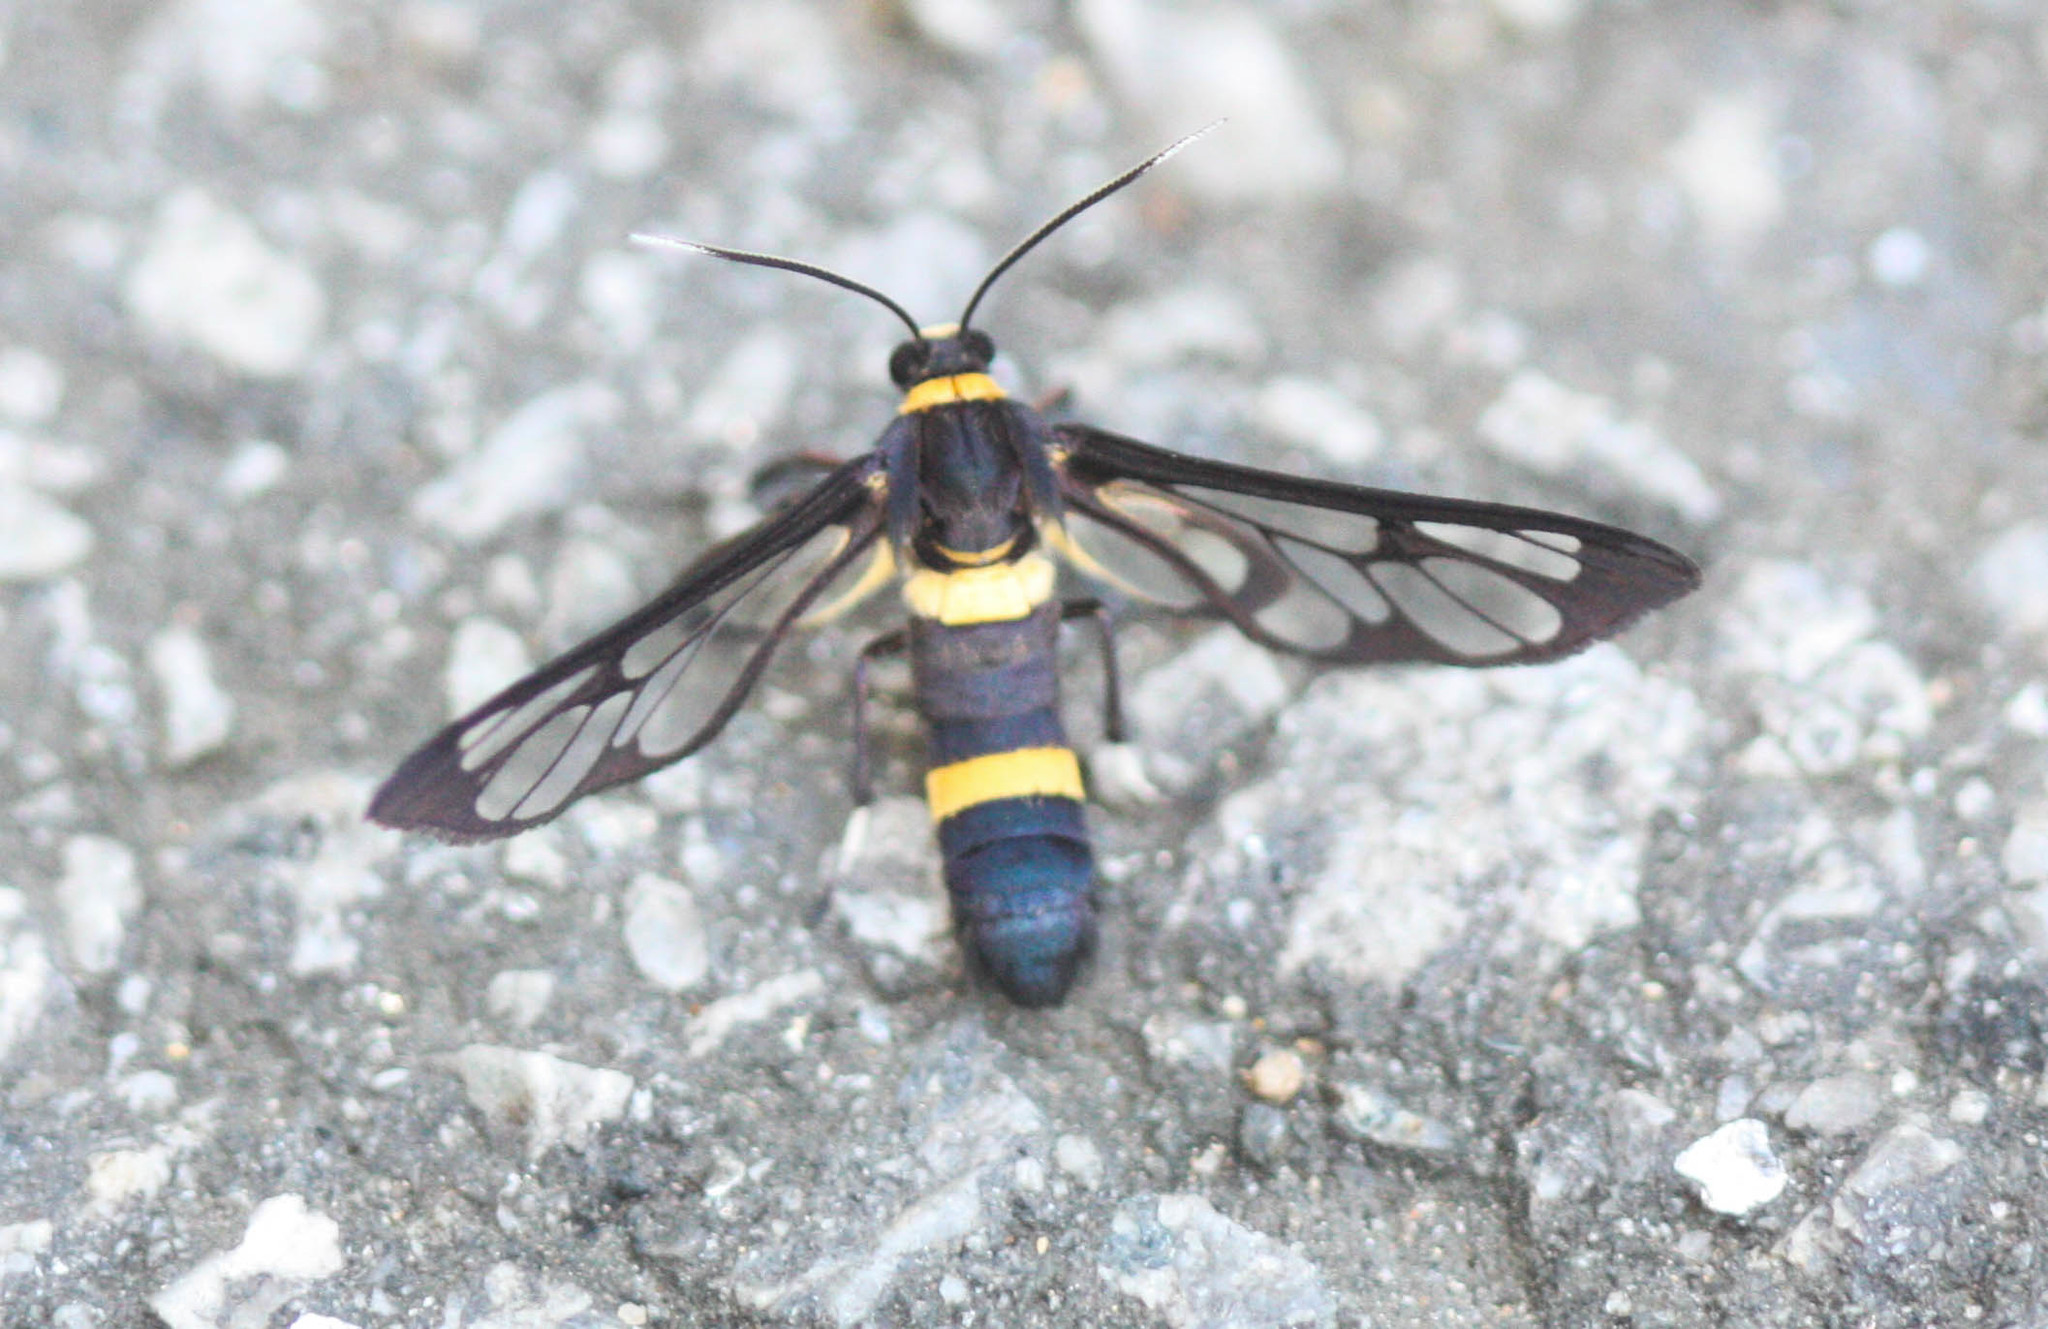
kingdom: Animalia
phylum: Arthropoda
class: Insecta
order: Lepidoptera
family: Erebidae
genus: Syntomoides
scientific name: Syntomoides imaon
